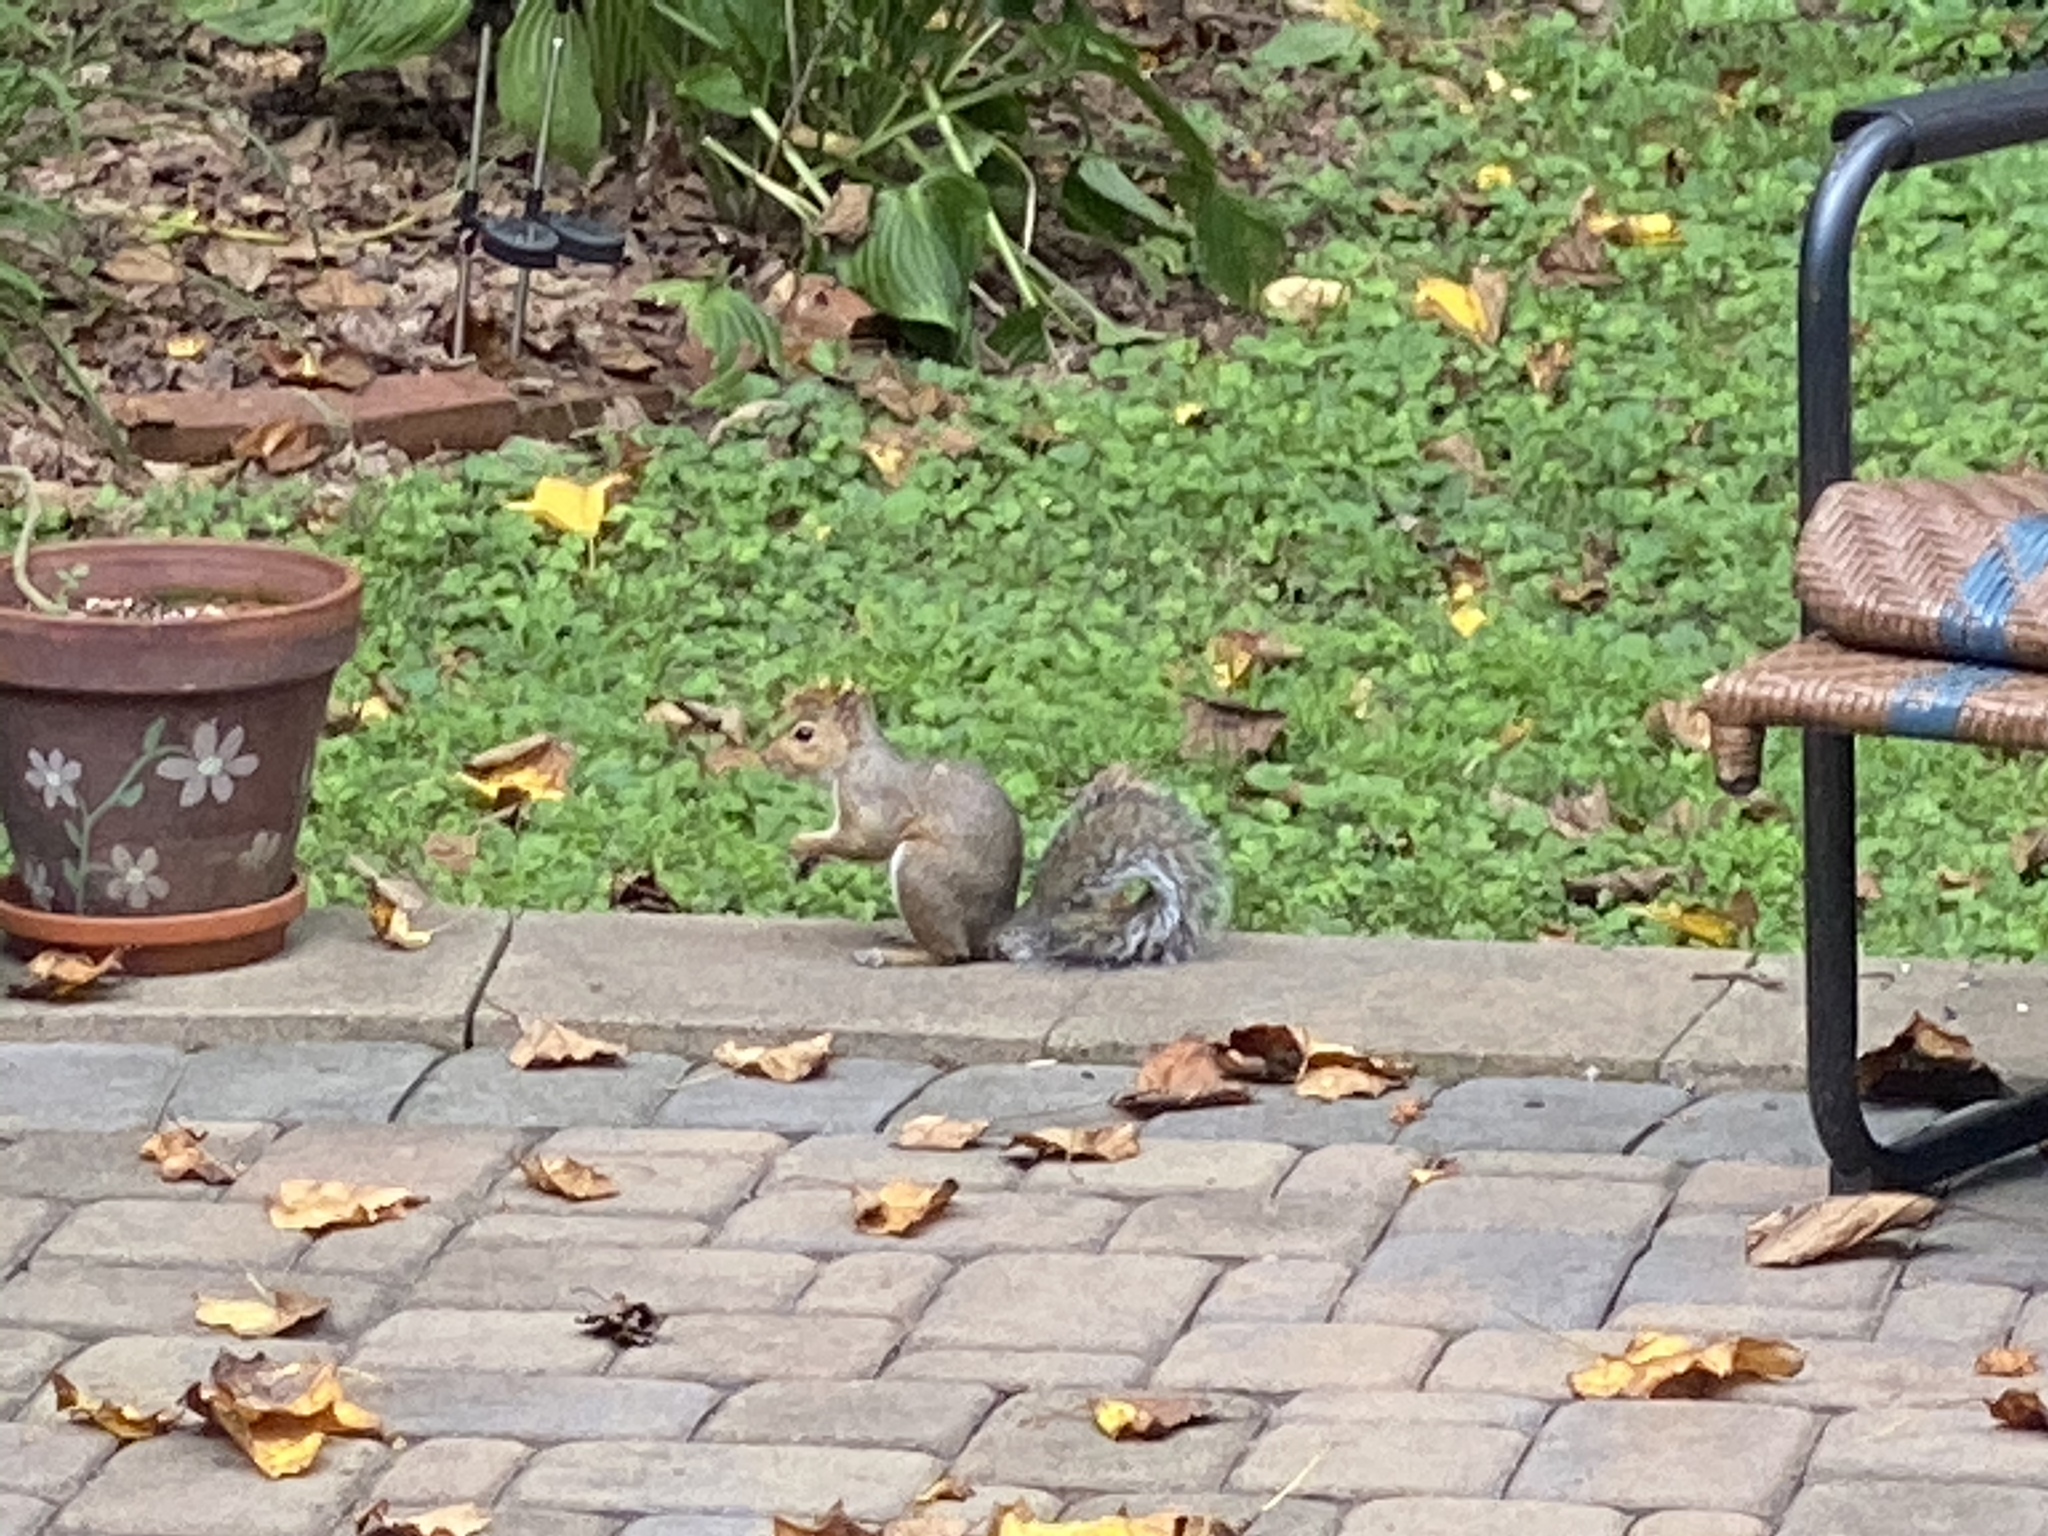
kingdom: Animalia
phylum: Chordata
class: Mammalia
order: Rodentia
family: Sciuridae
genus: Sciurus
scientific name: Sciurus carolinensis
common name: Eastern gray squirrel
